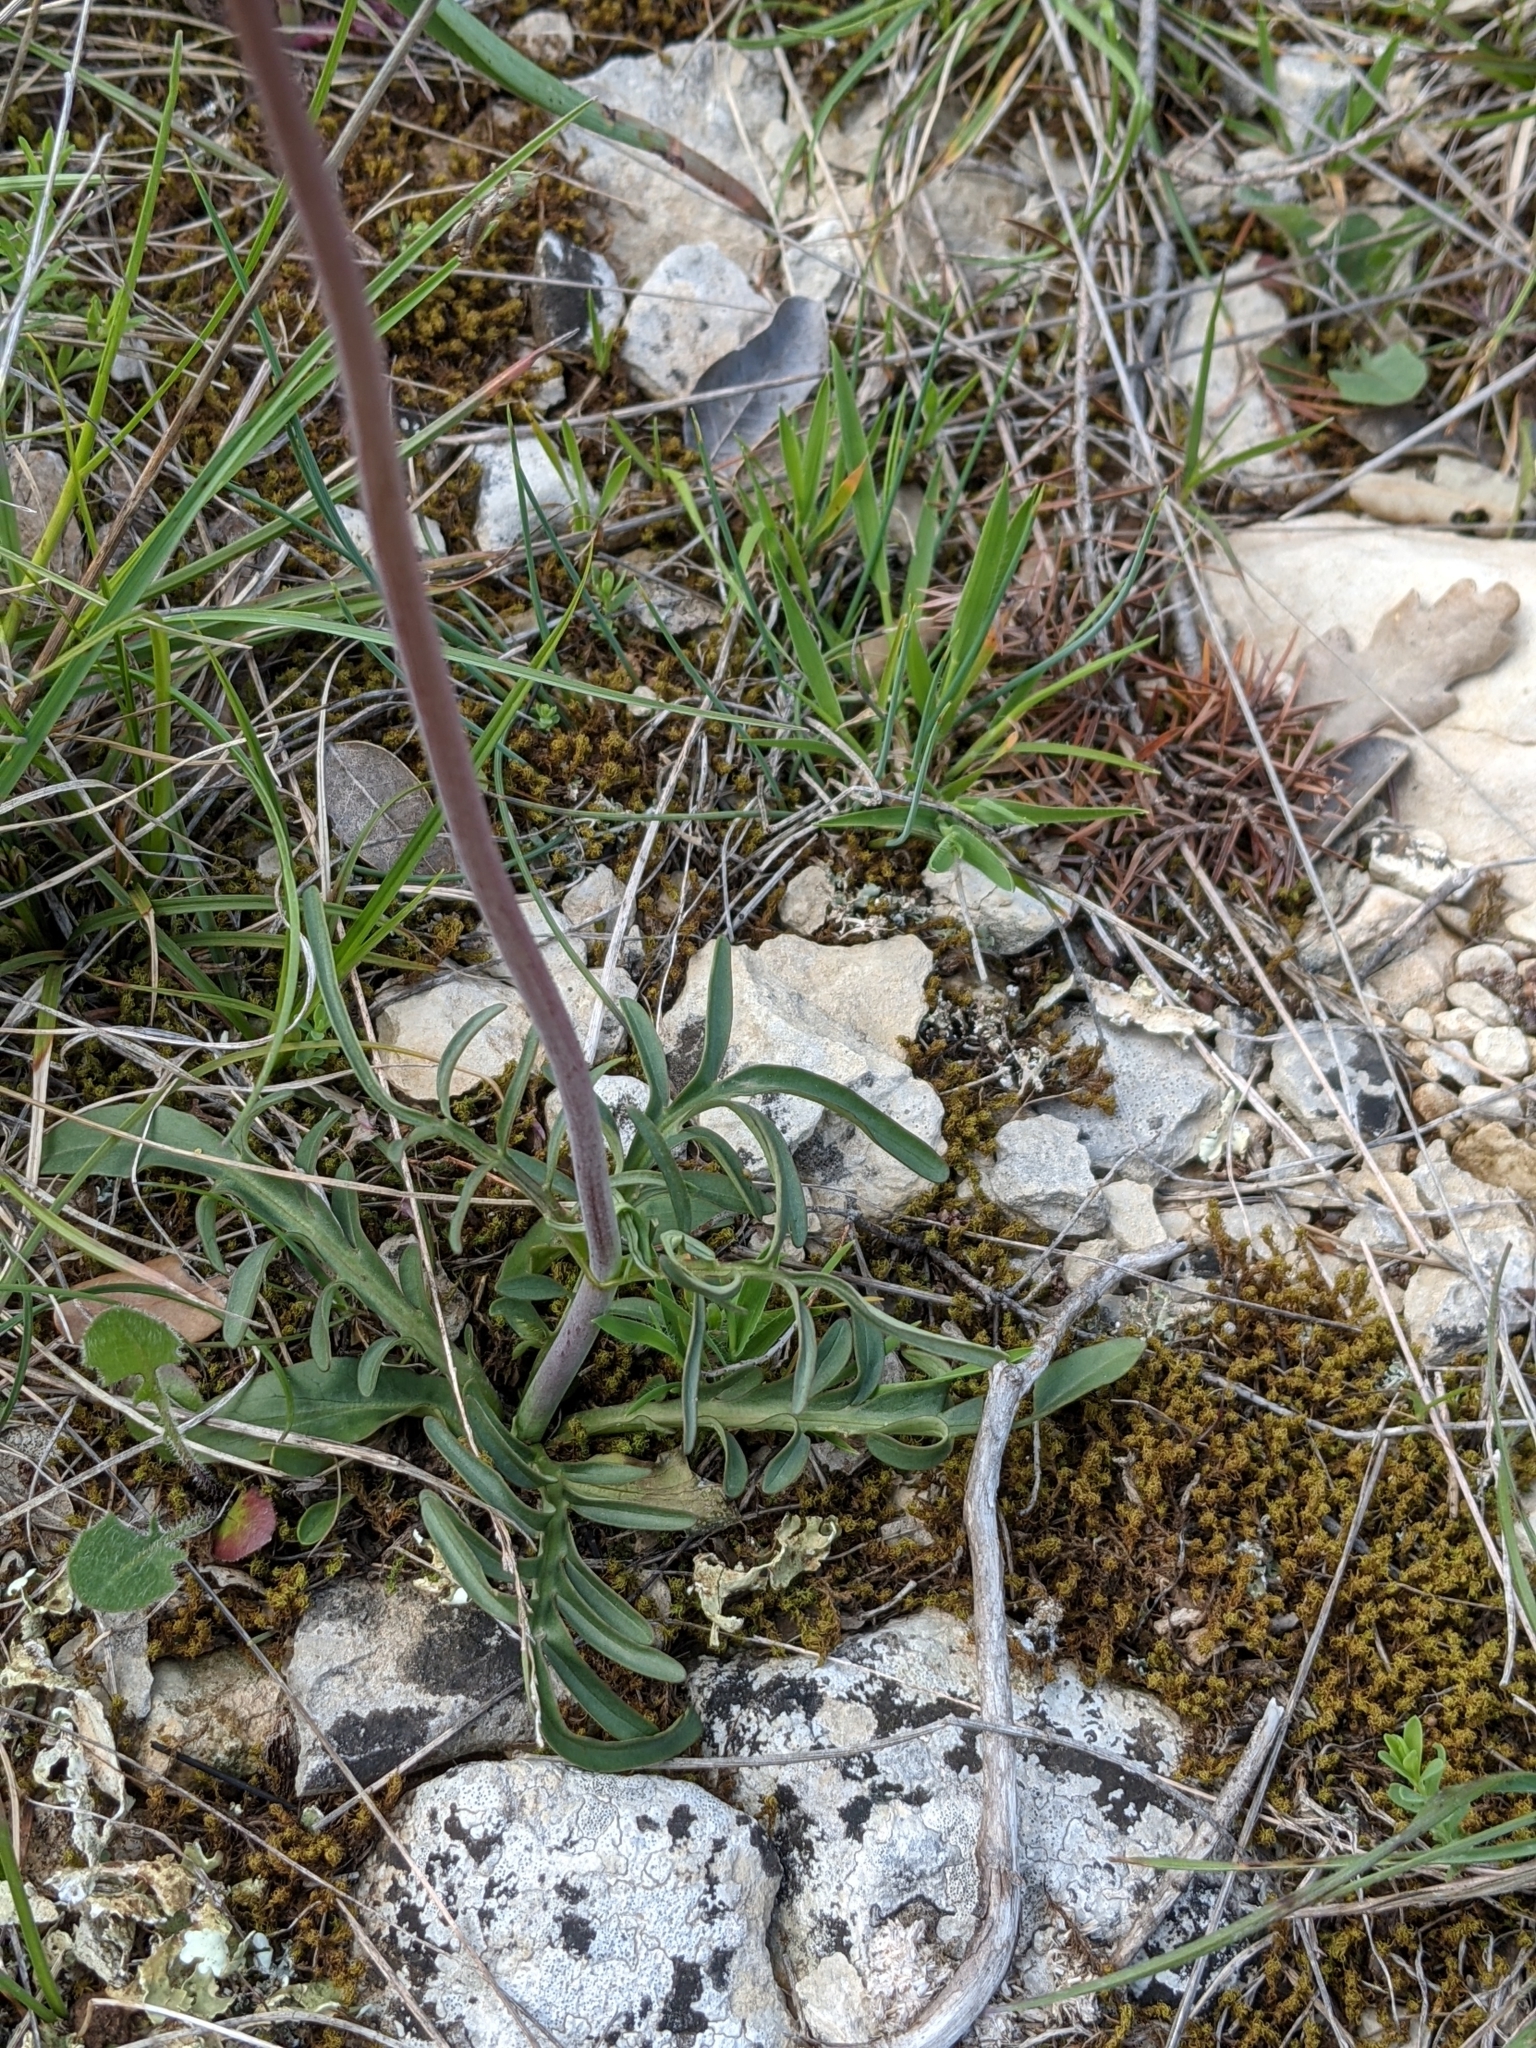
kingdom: Plantae
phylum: Tracheophyta
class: Magnoliopsida
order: Dipsacales
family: Caprifoliaceae
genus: Valeriana
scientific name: Valeriana tuberosa
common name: Tuberous valerian
